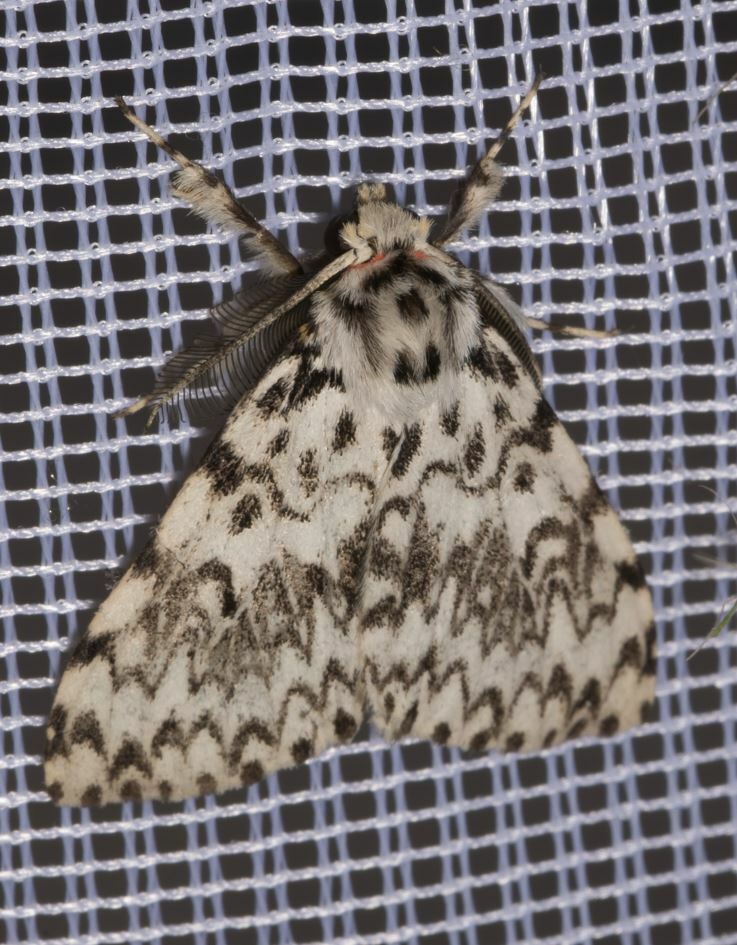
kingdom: Animalia
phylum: Arthropoda
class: Insecta
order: Lepidoptera
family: Erebidae
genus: Lymantria
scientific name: Lymantria monacha
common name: Black arches
